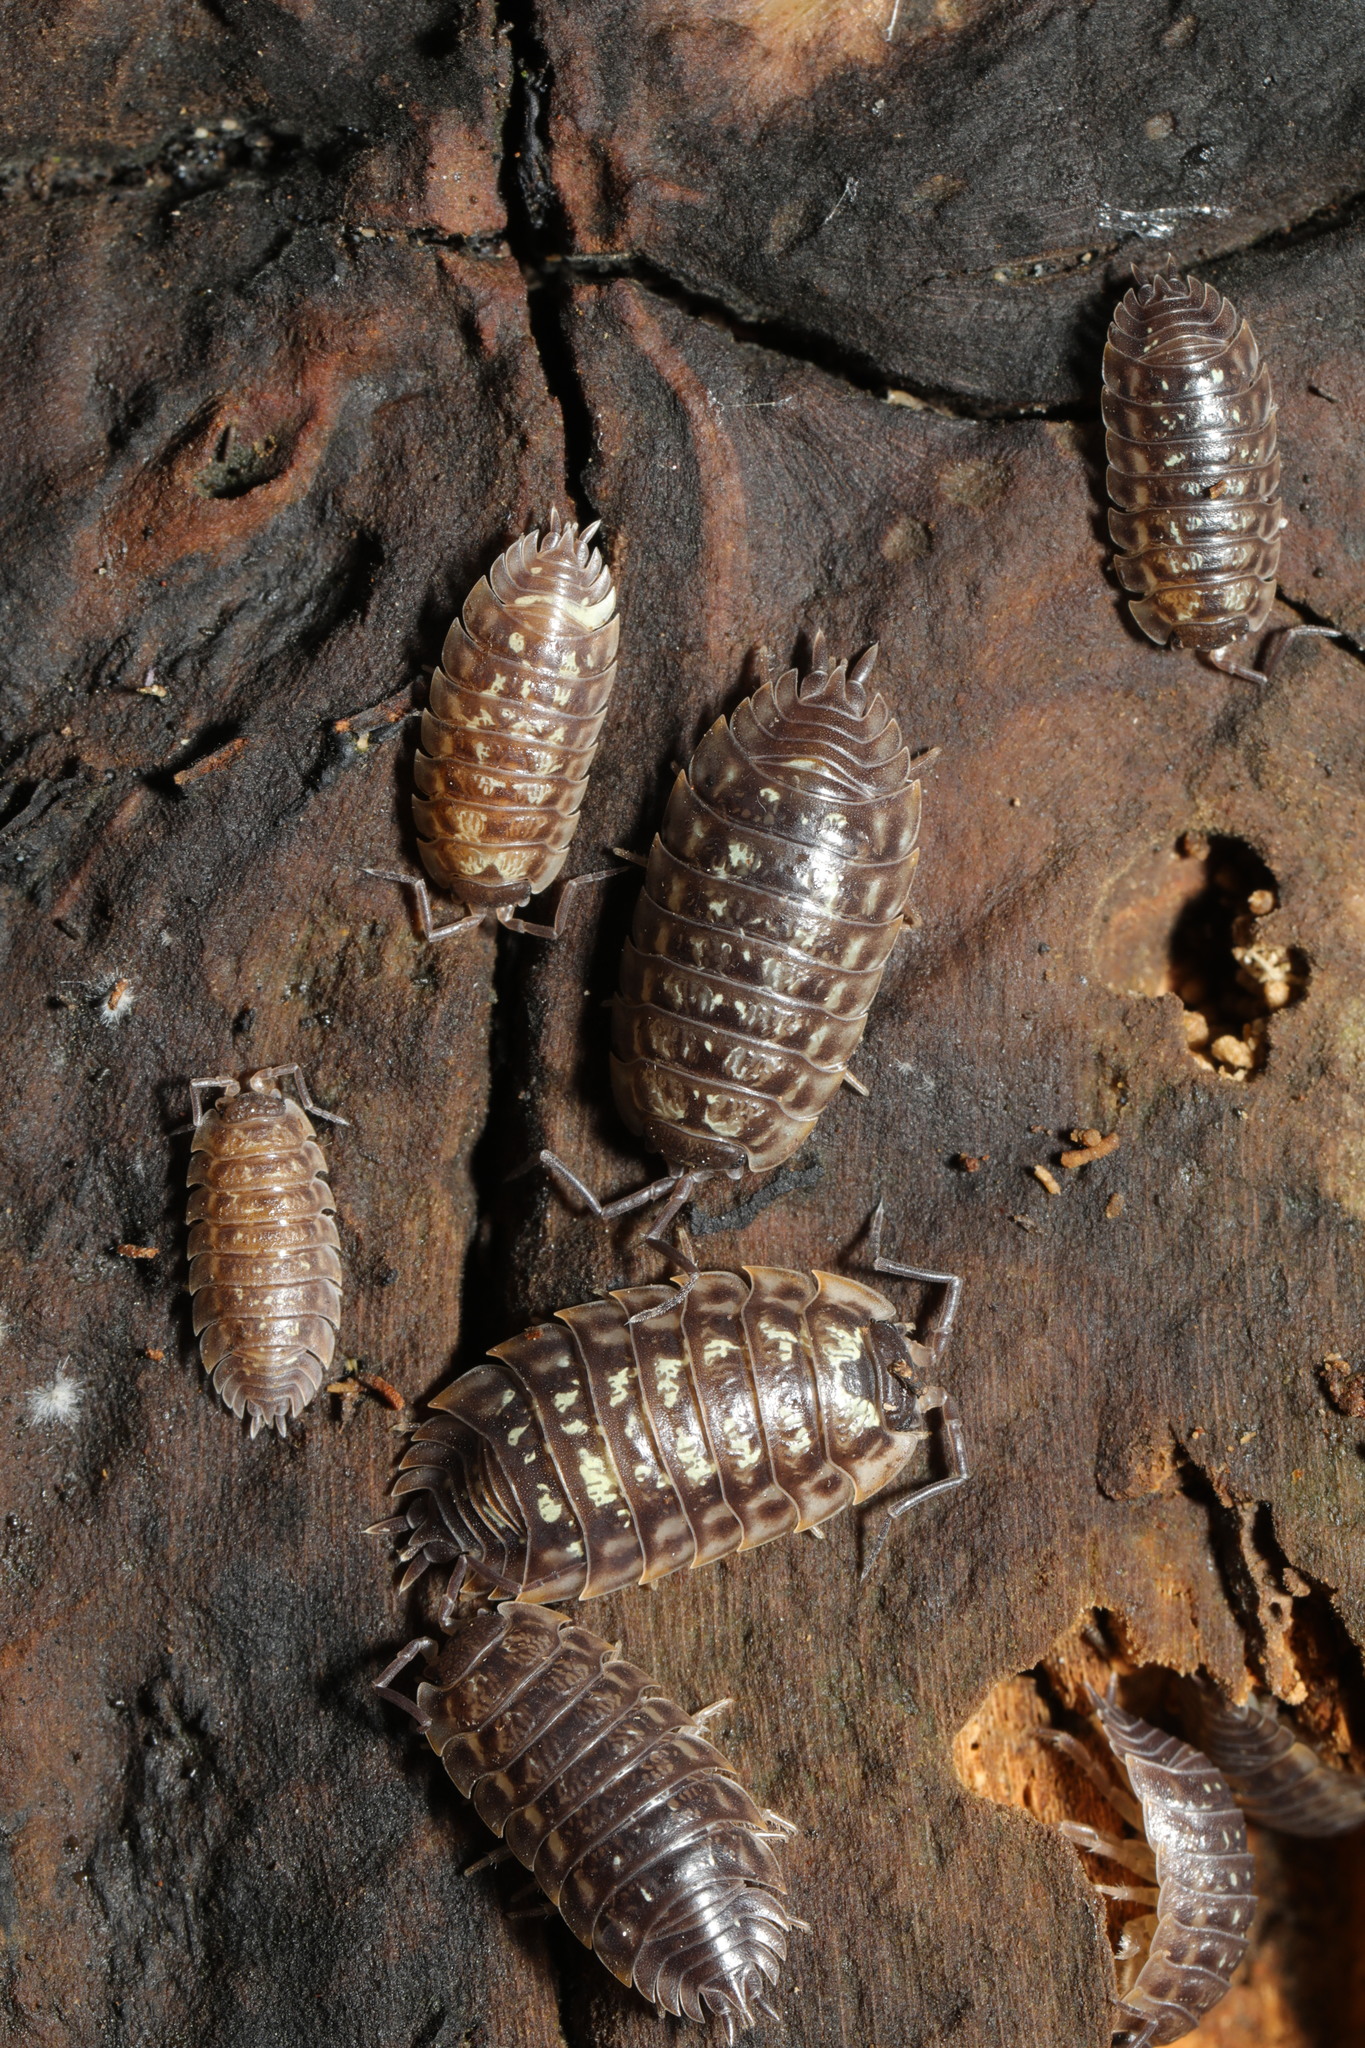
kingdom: Animalia
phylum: Arthropoda
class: Malacostraca
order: Isopoda
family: Oniscidae
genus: Oniscus
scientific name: Oniscus asellus
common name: Common shiny woodlouse
